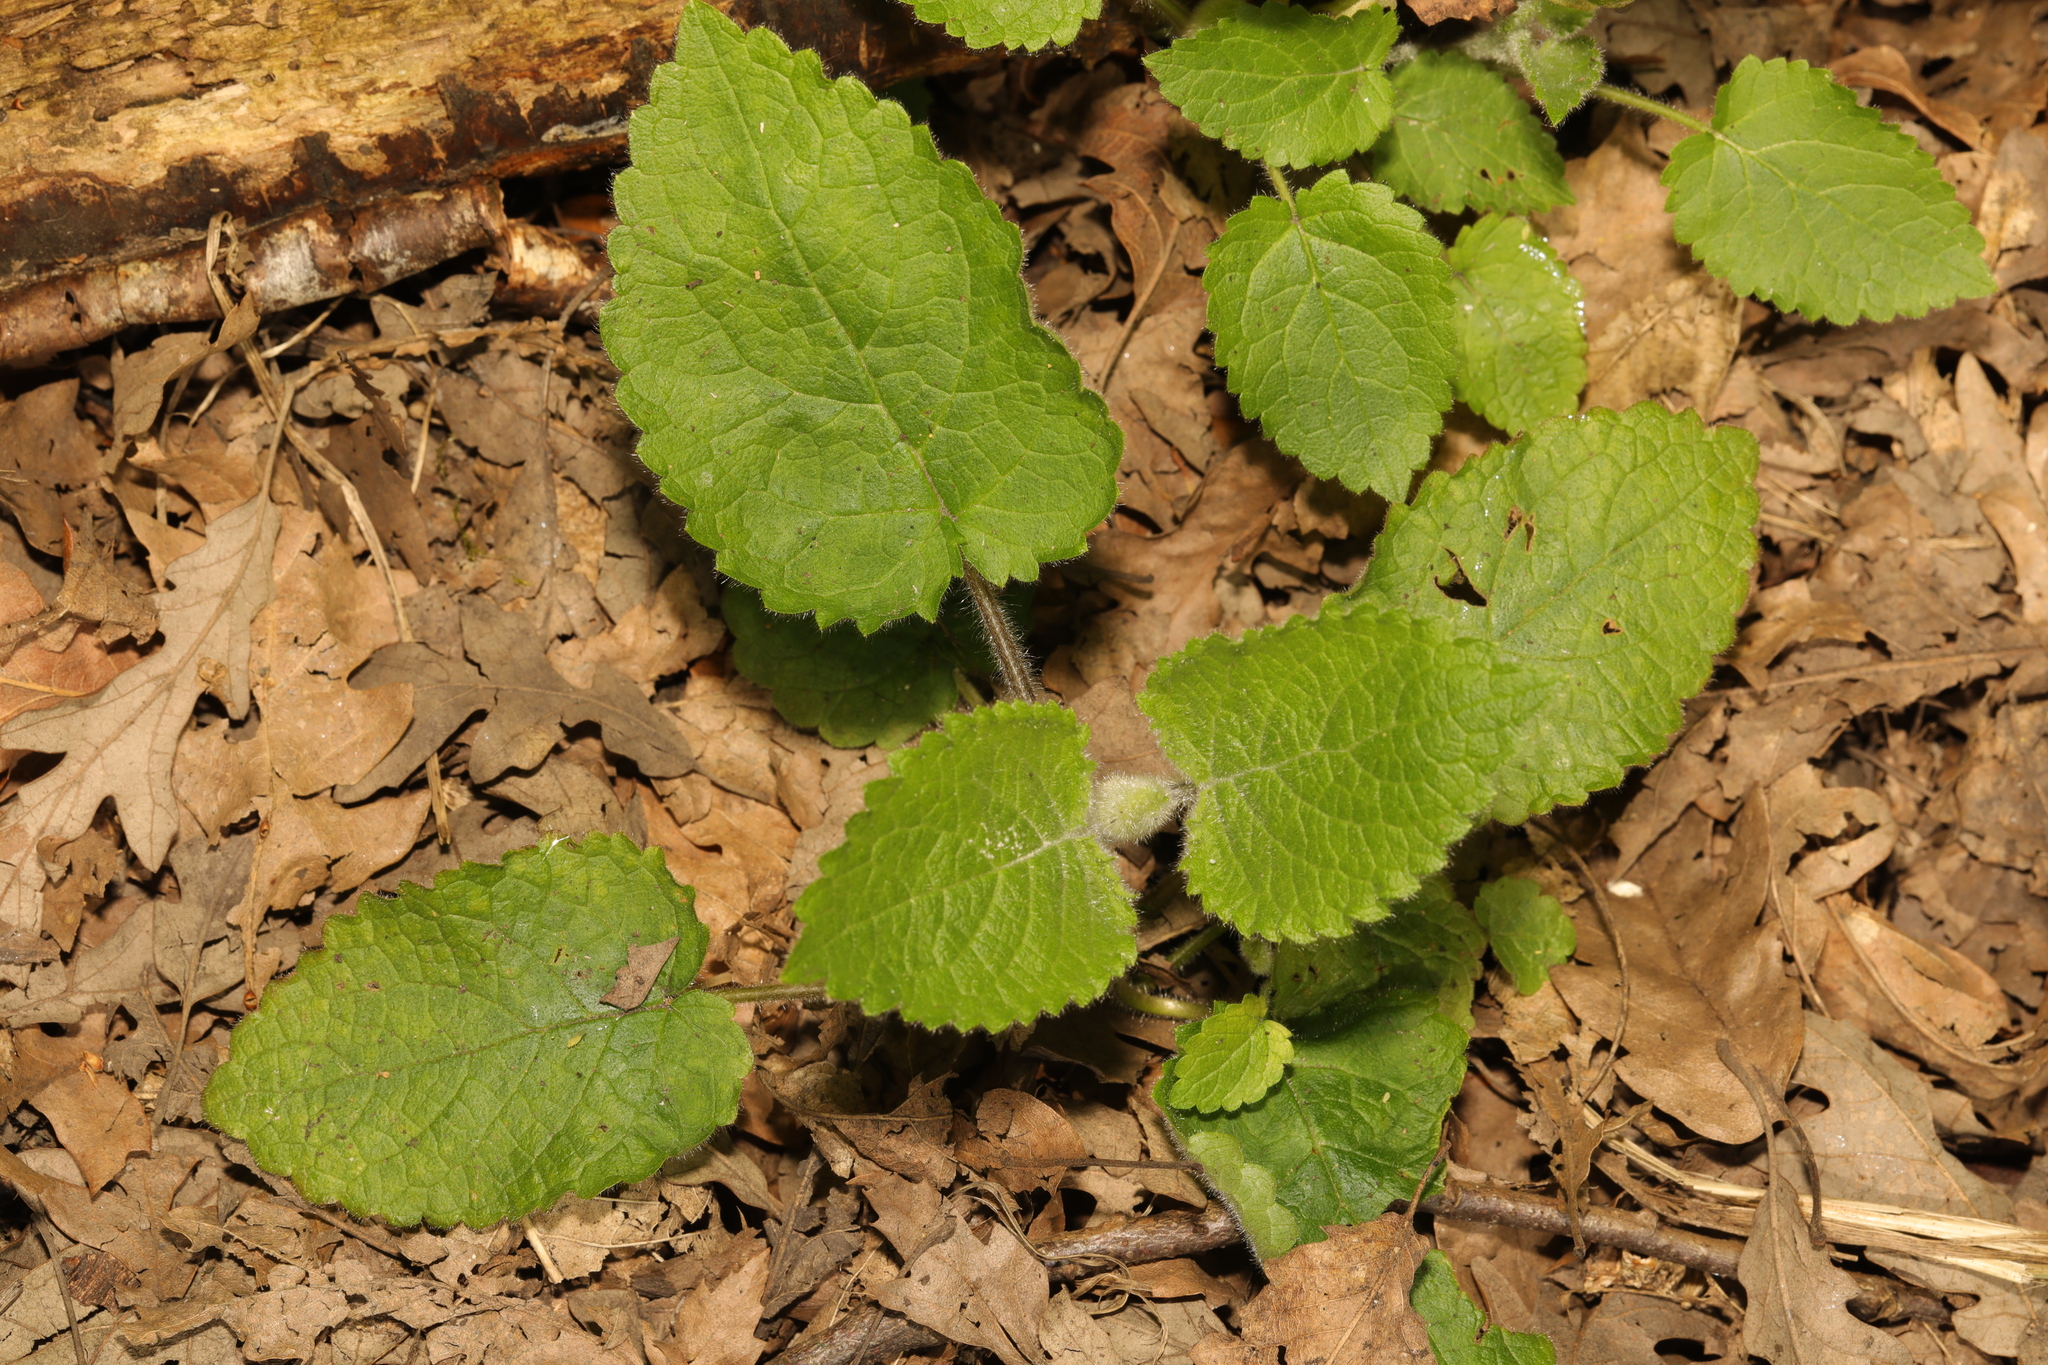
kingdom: Plantae
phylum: Tracheophyta
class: Magnoliopsida
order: Lamiales
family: Lamiaceae
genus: Stachys
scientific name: Stachys sylvatica
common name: Hedge woundwort
